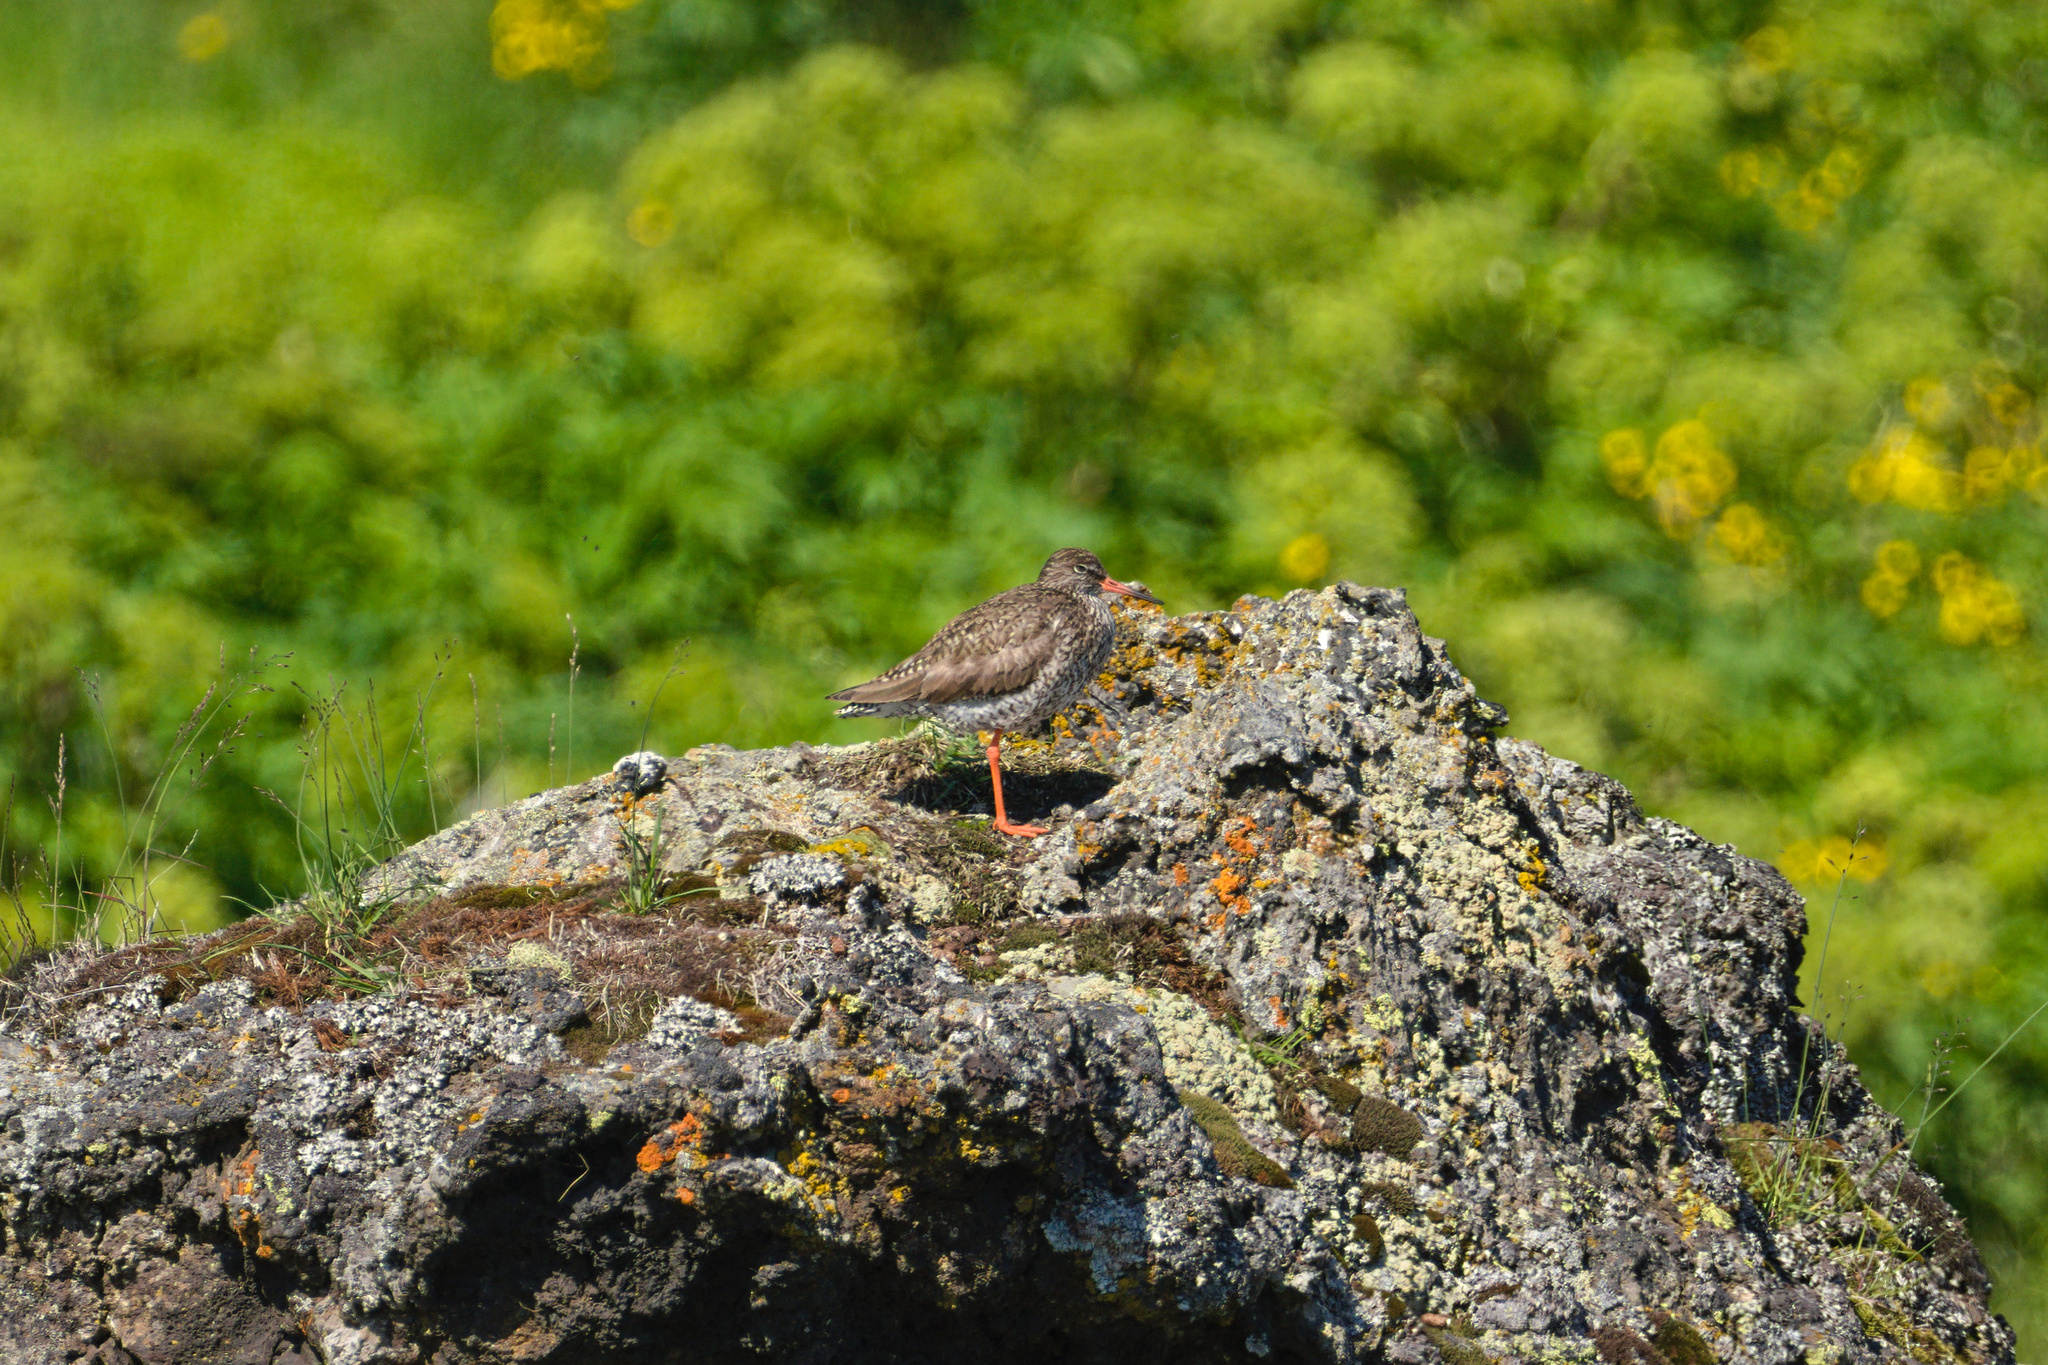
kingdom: Animalia
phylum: Chordata
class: Aves
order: Charadriiformes
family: Scolopacidae
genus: Tringa
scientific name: Tringa totanus
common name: Common redshank
